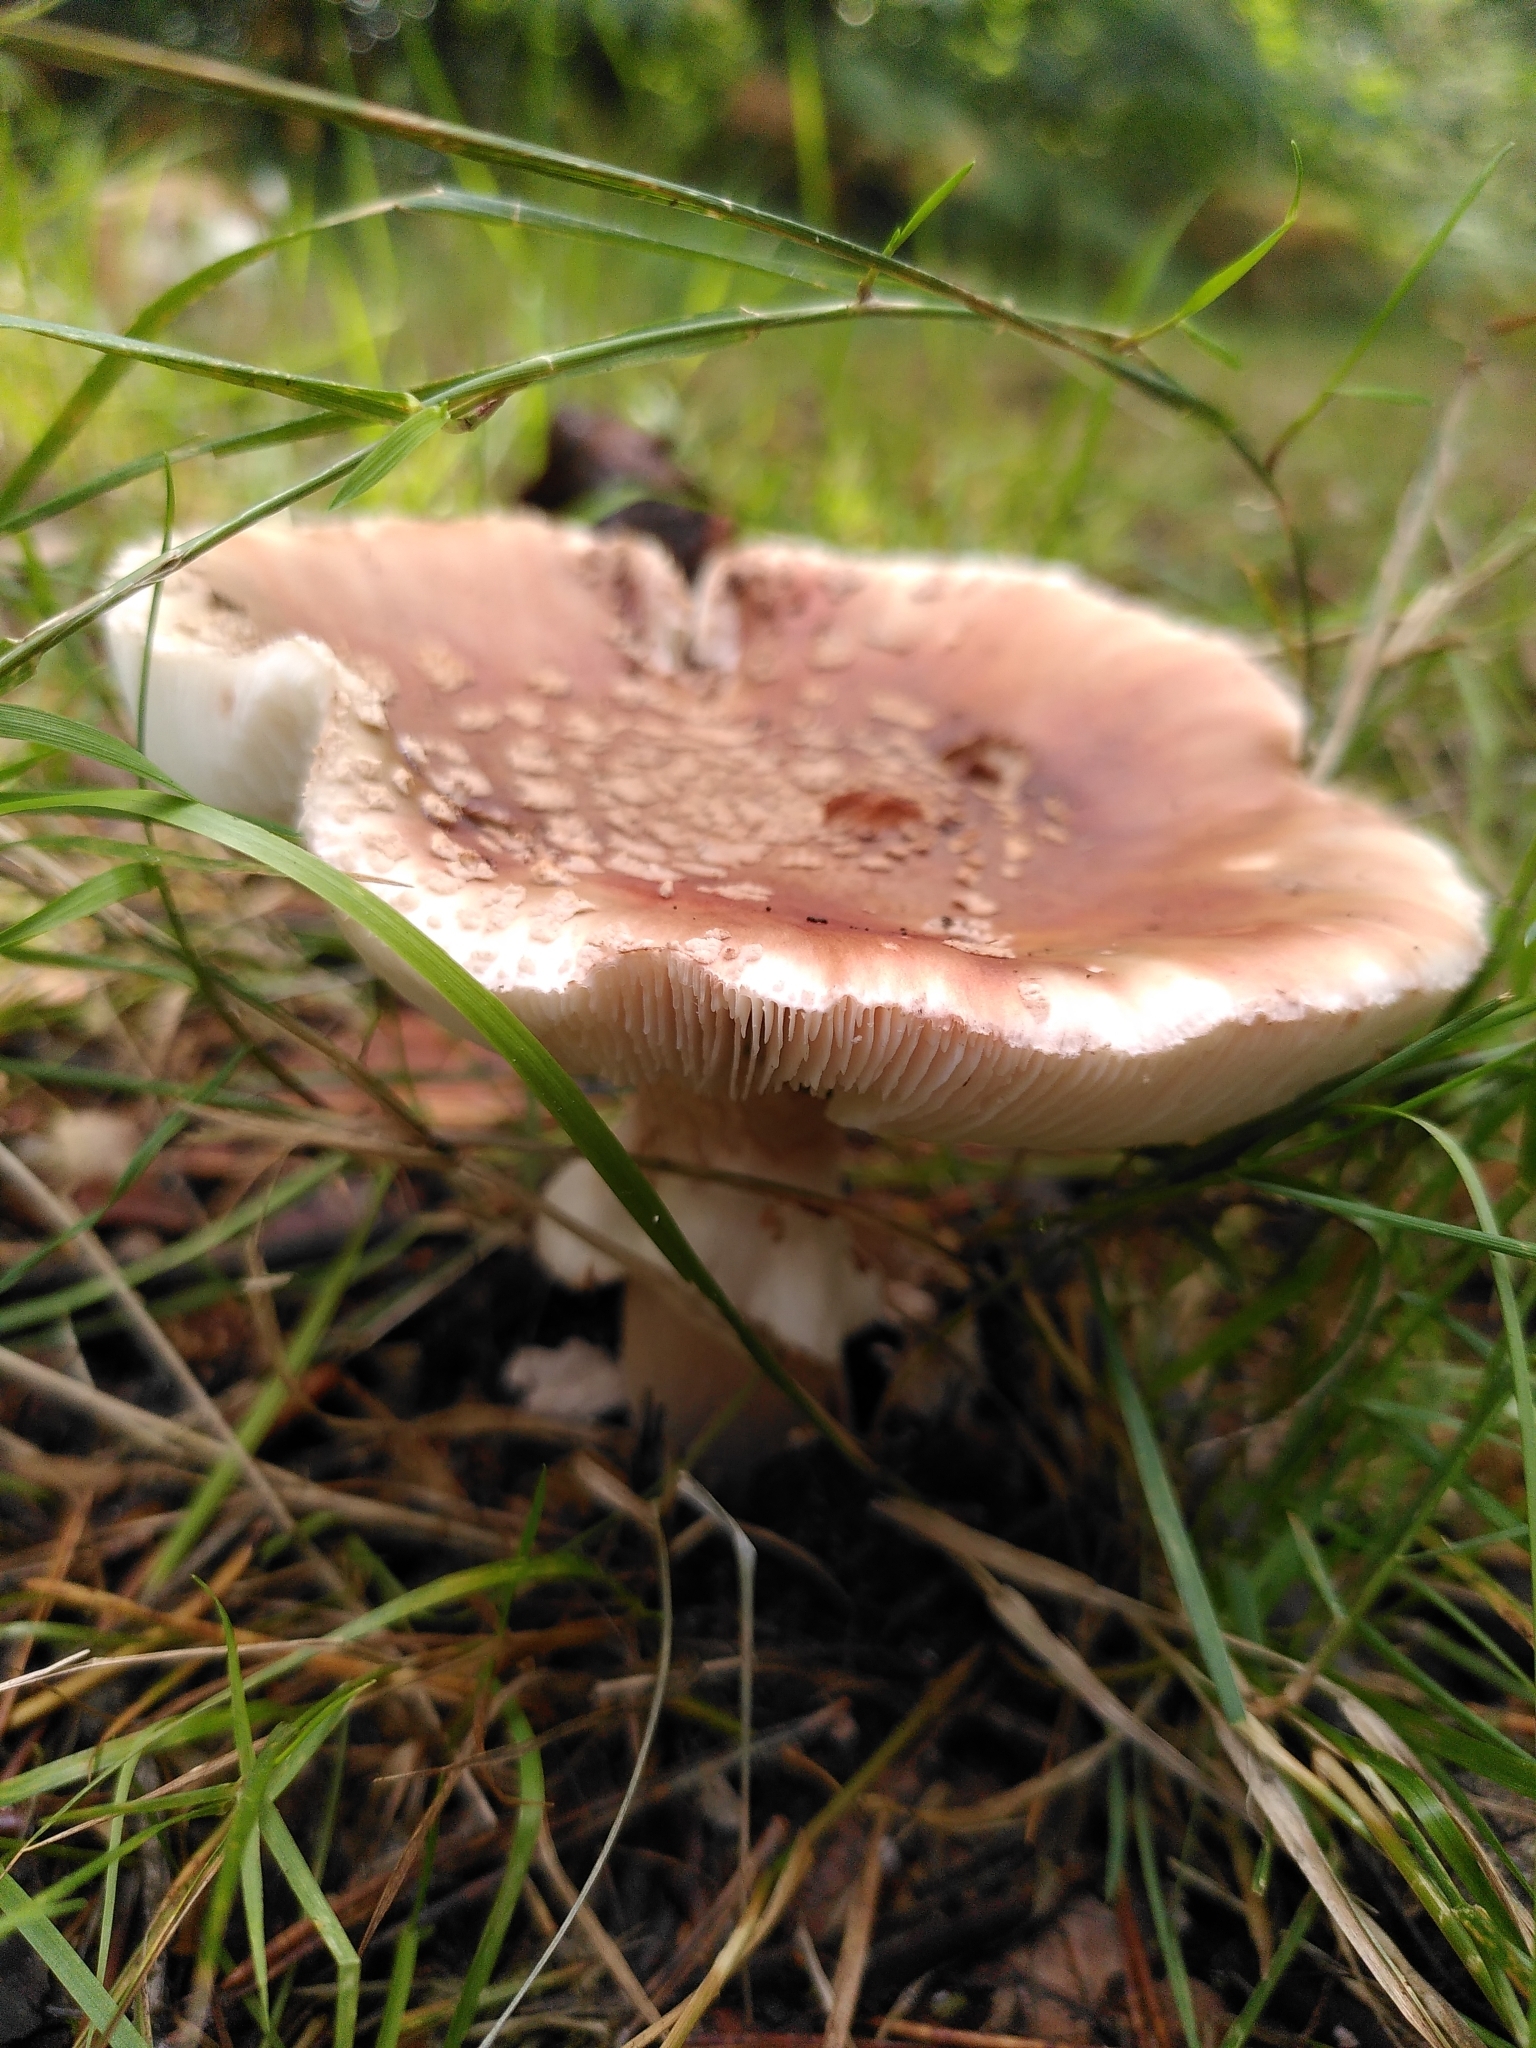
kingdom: Fungi
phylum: Basidiomycota
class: Agaricomycetes
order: Agaricales
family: Amanitaceae
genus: Amanita
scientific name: Amanita rubescens
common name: Blusher
